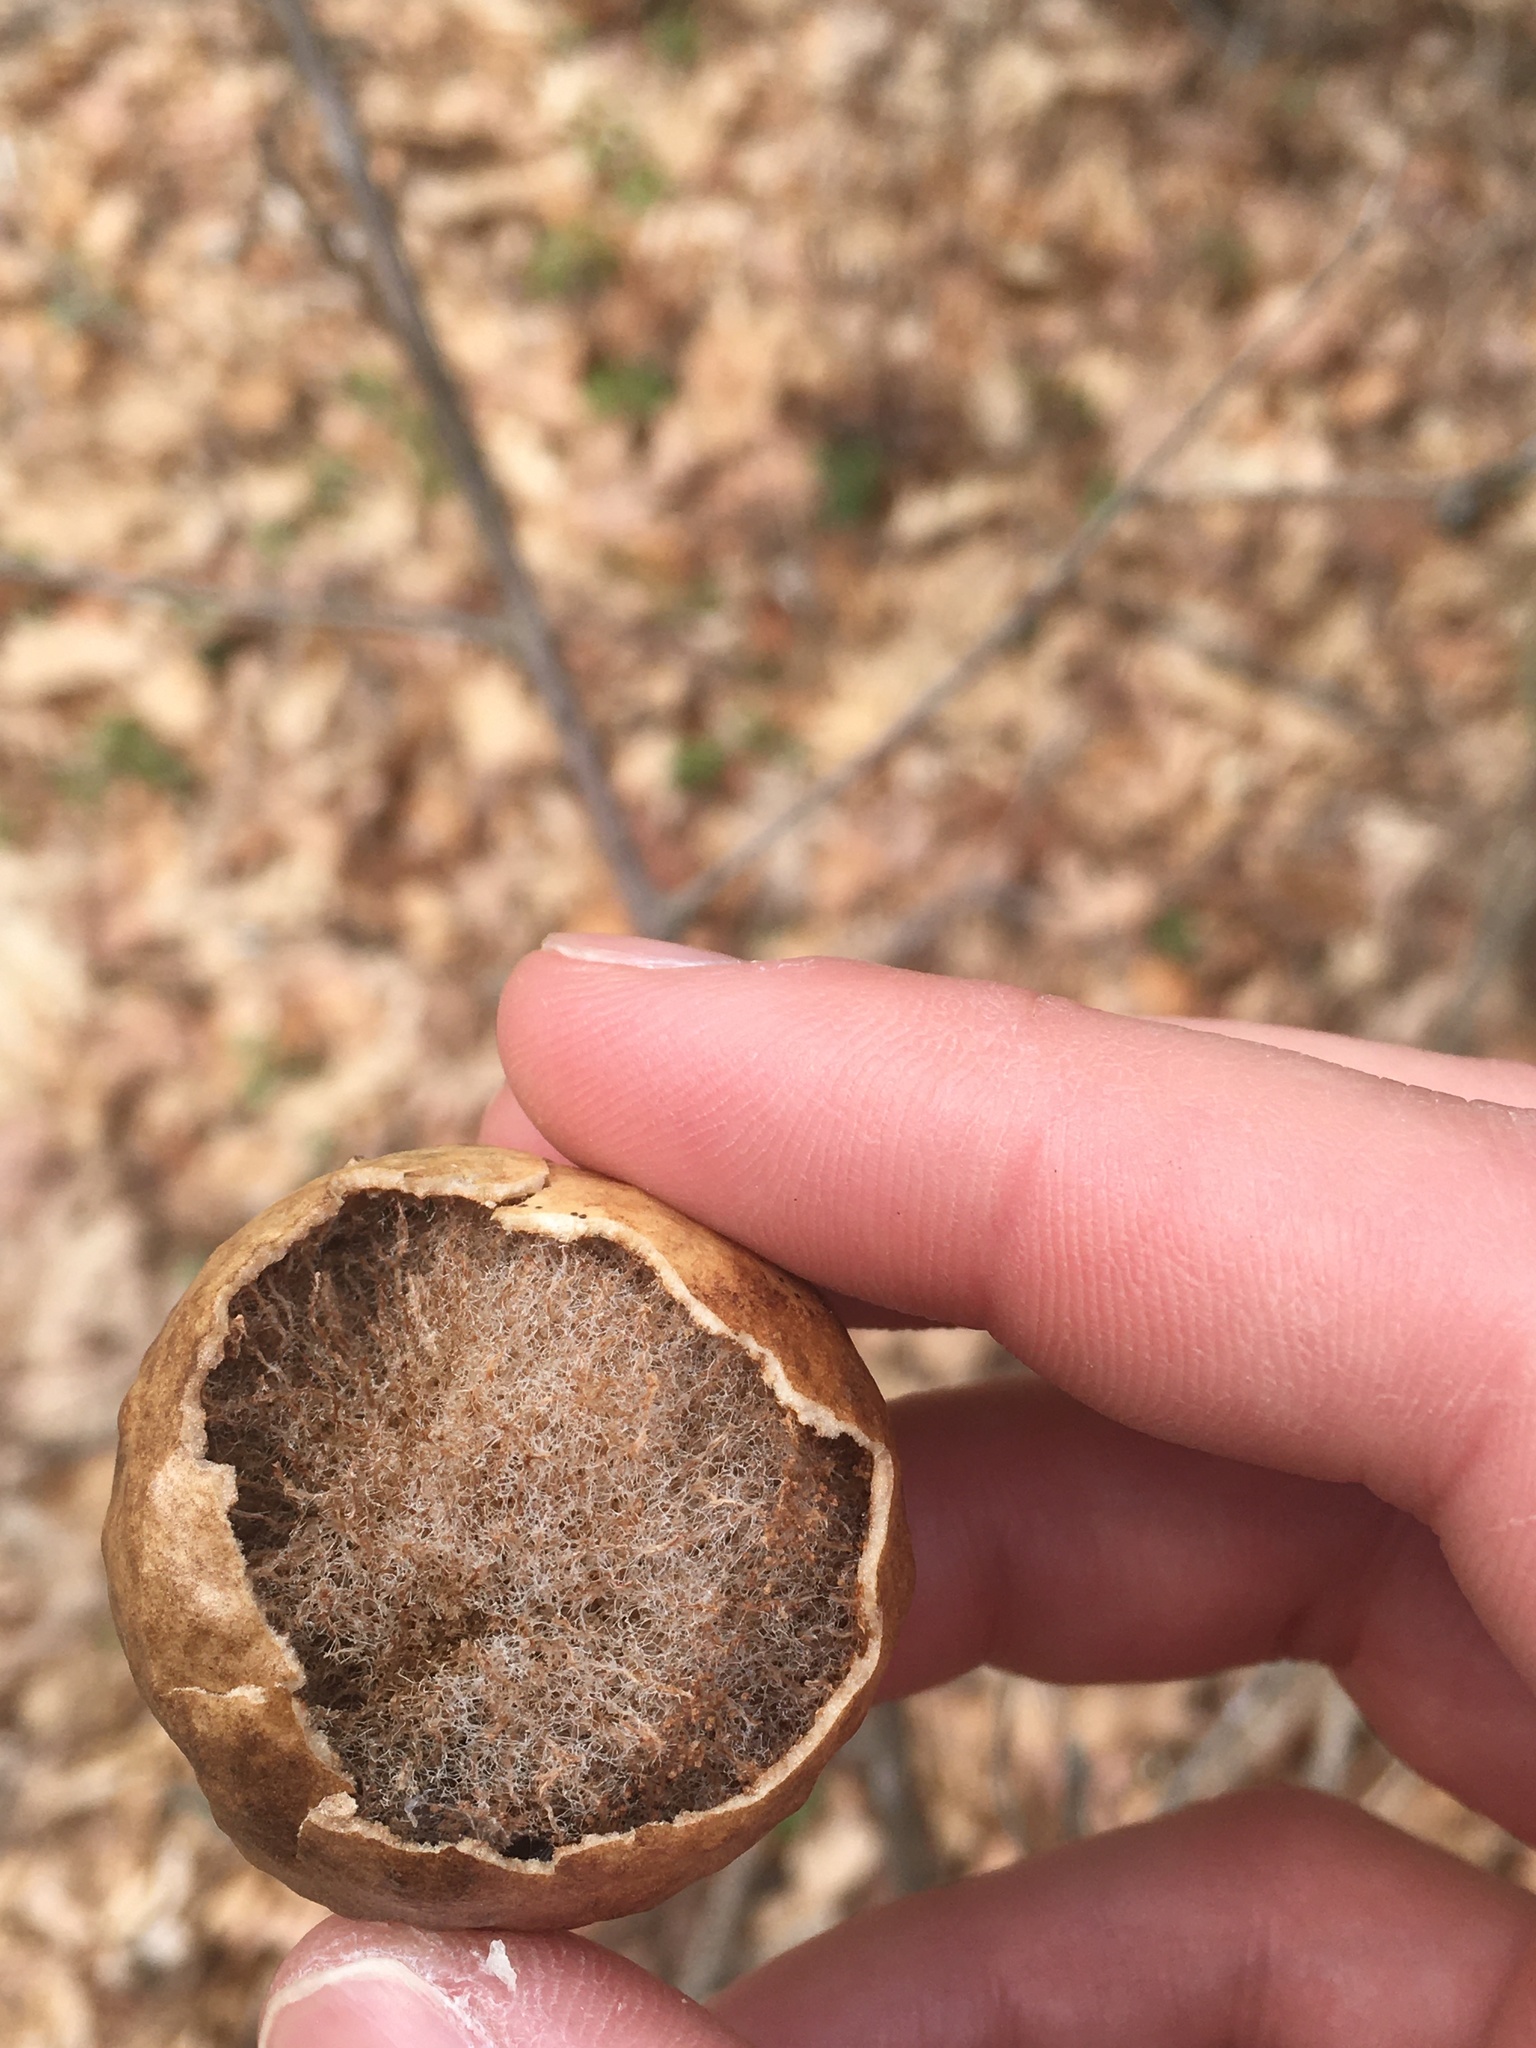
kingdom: Animalia
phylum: Arthropoda
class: Insecta
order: Hymenoptera
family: Cynipidae
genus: Amphibolips
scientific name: Amphibolips
